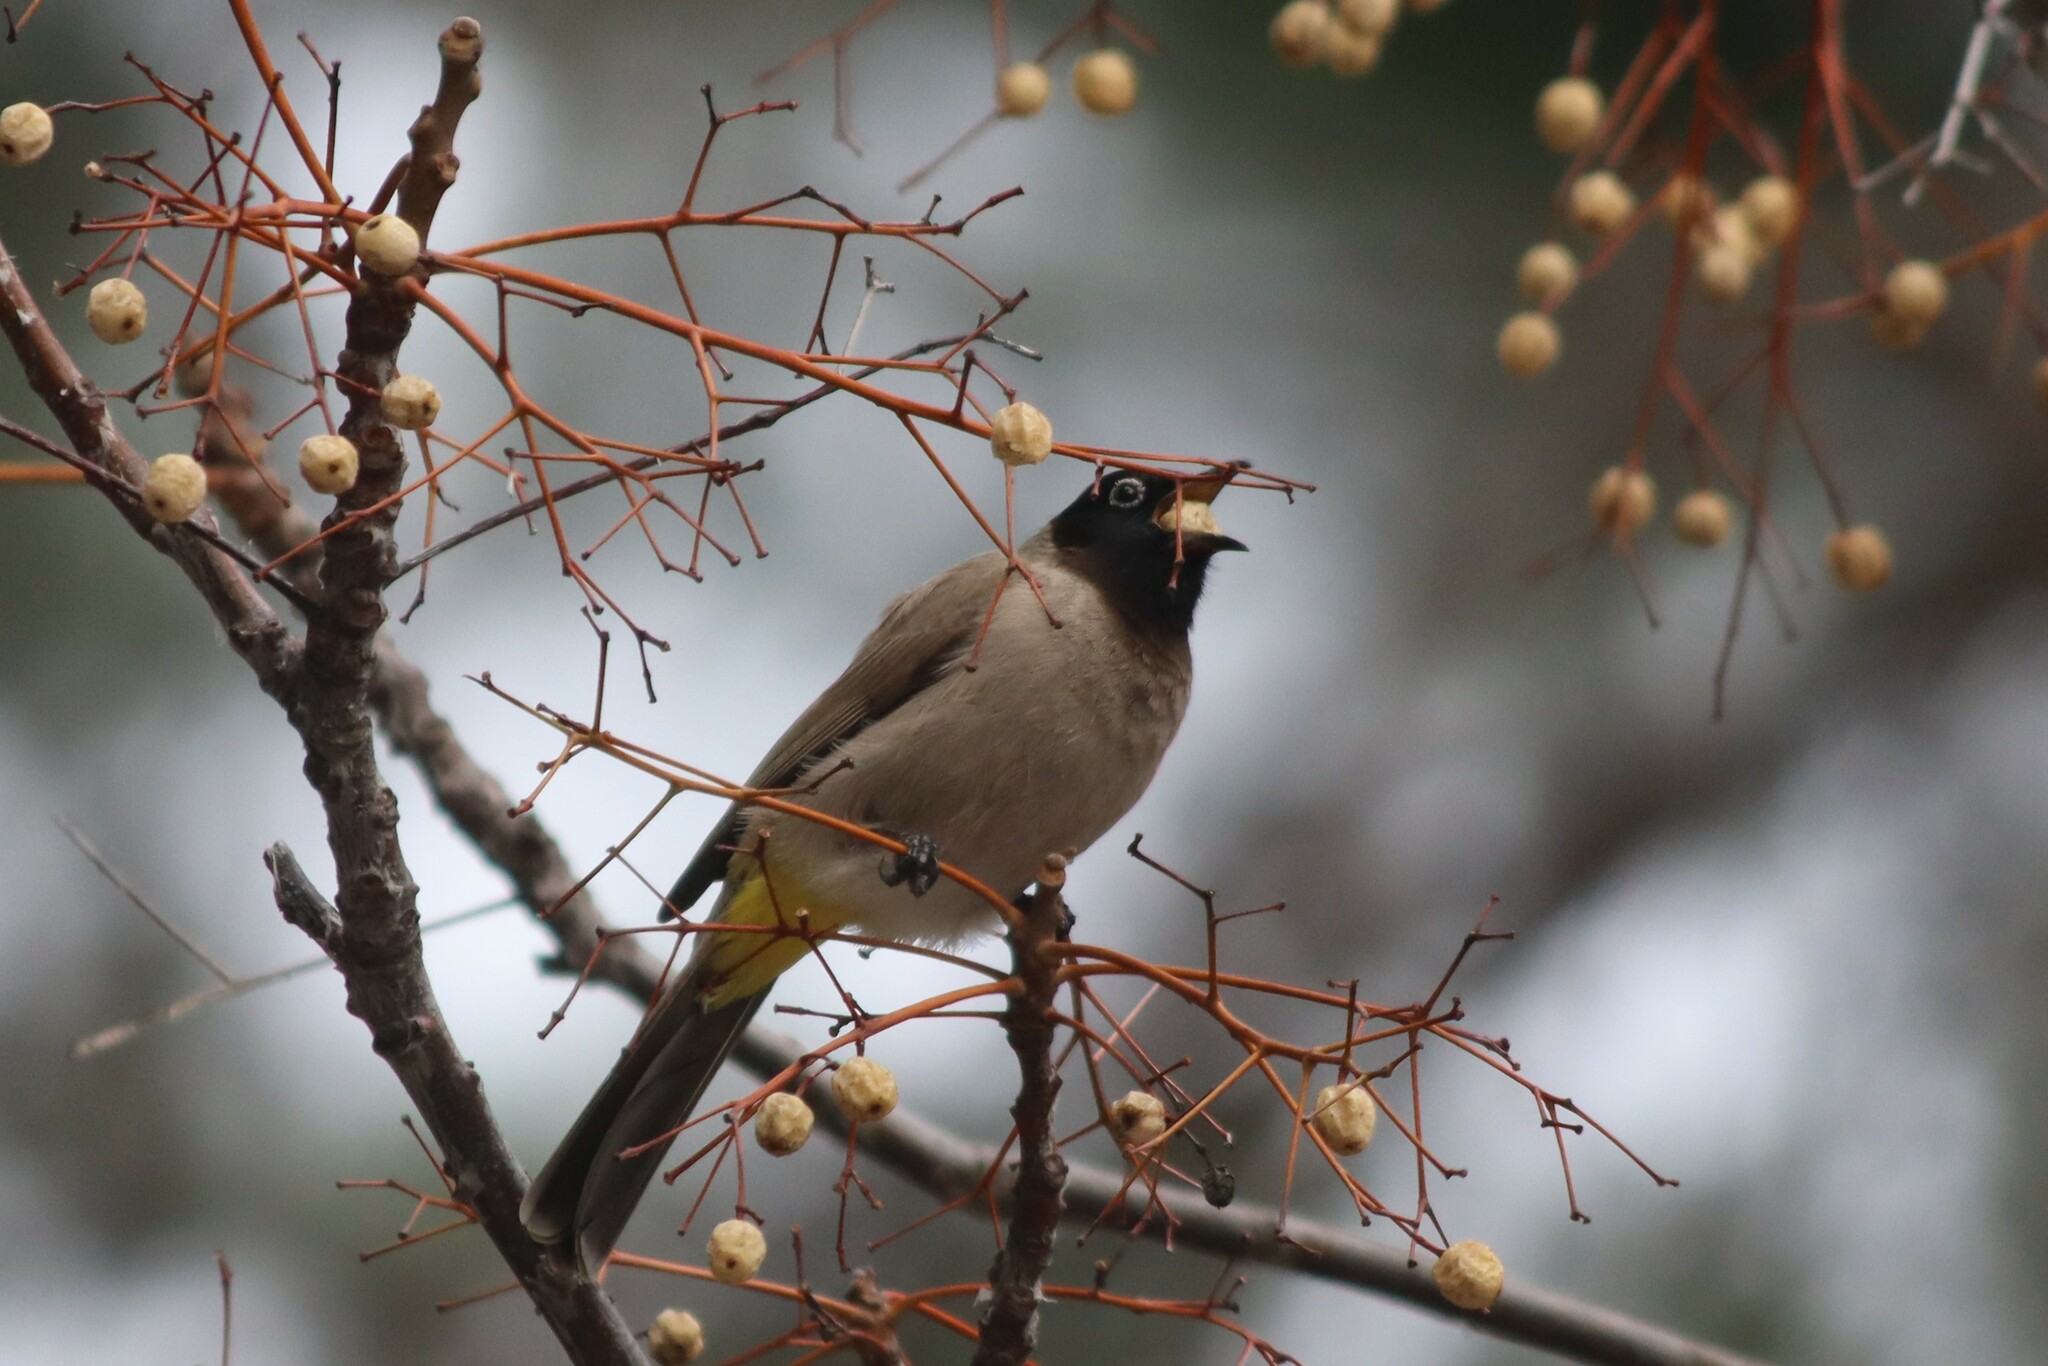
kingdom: Animalia
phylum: Chordata
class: Aves
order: Passeriformes
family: Pycnonotidae
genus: Pycnonotus
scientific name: Pycnonotus xanthopygos
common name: White-spectacled bulbul
